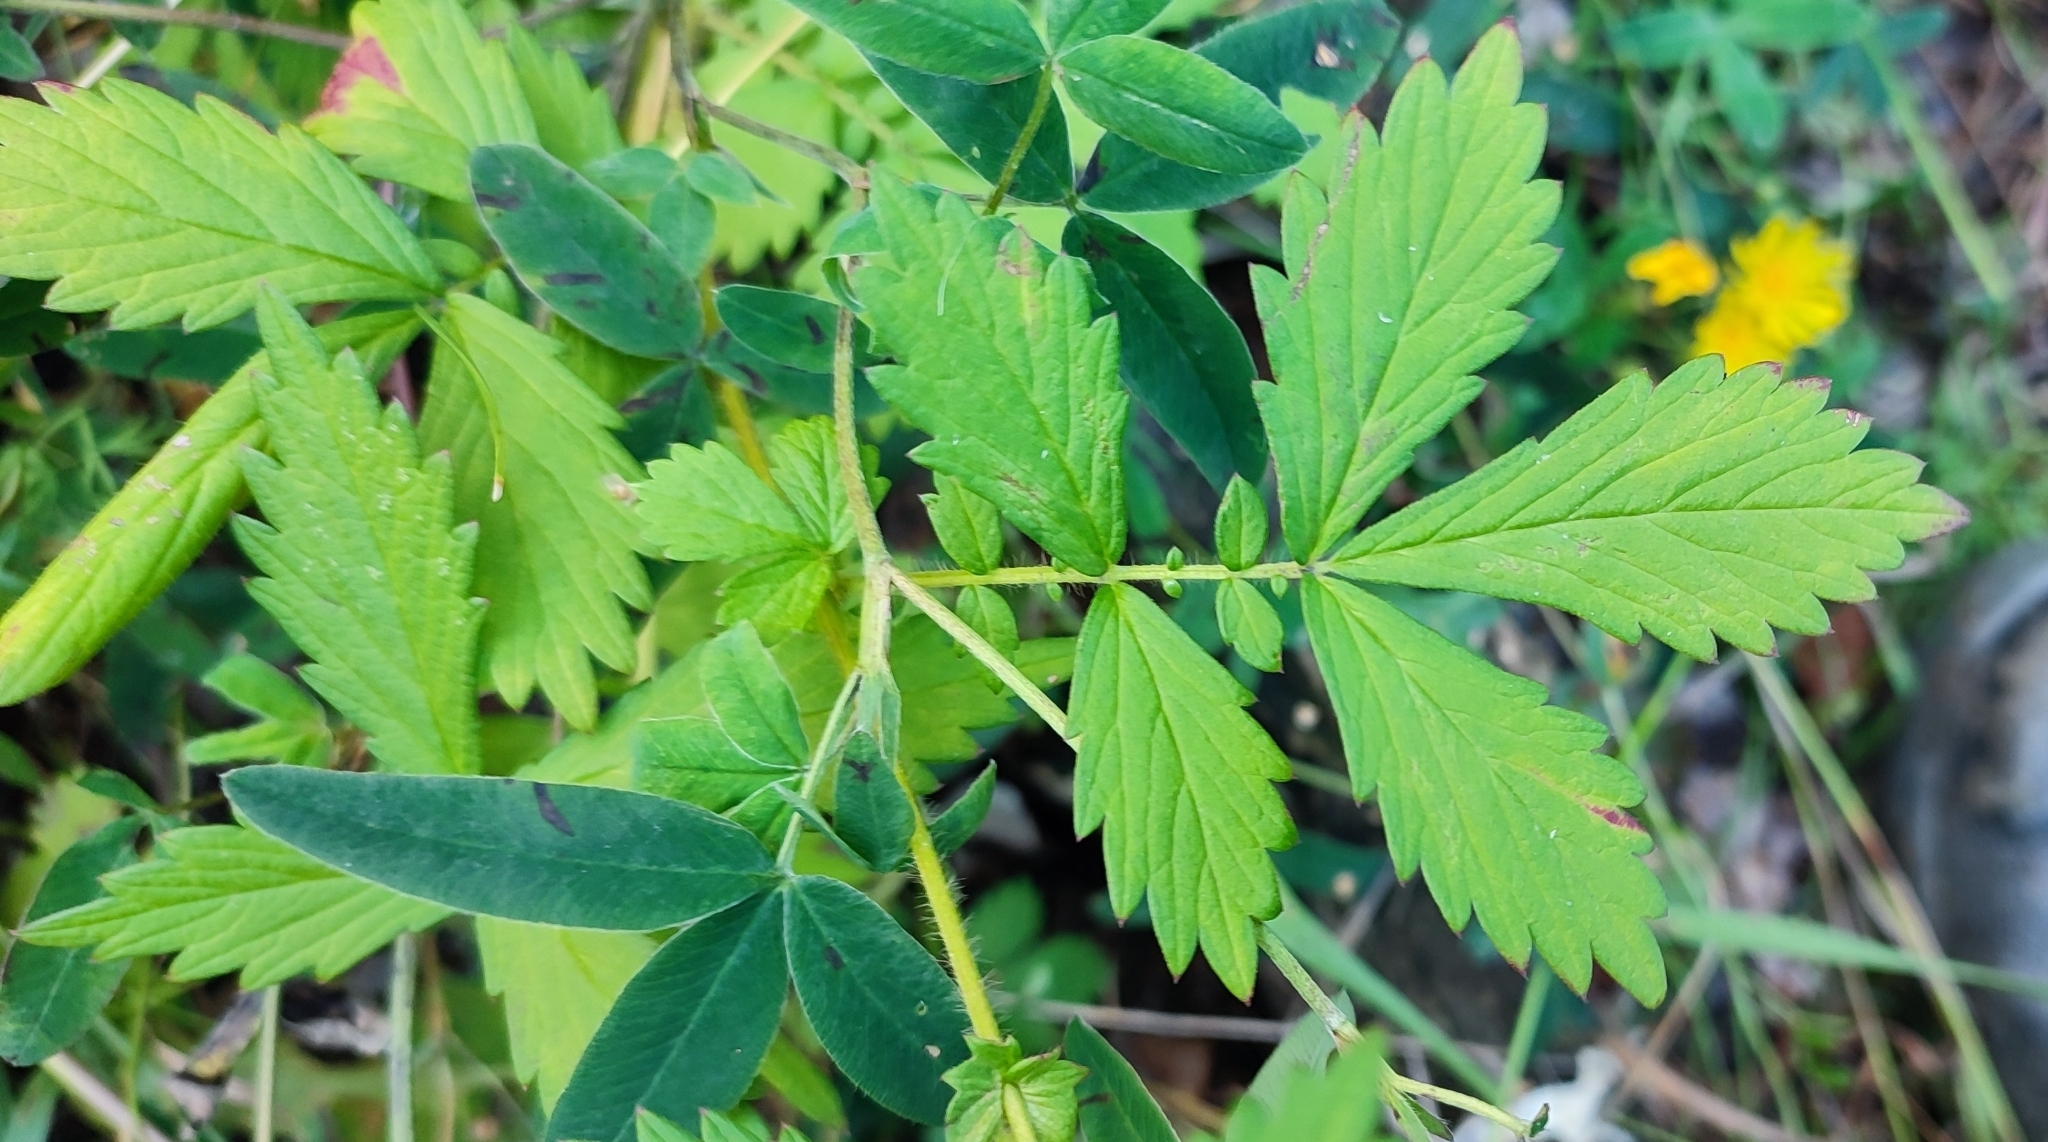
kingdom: Plantae
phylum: Tracheophyta
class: Magnoliopsida
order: Rosales
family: Rosaceae
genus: Agrimonia
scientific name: Agrimonia pilosa
